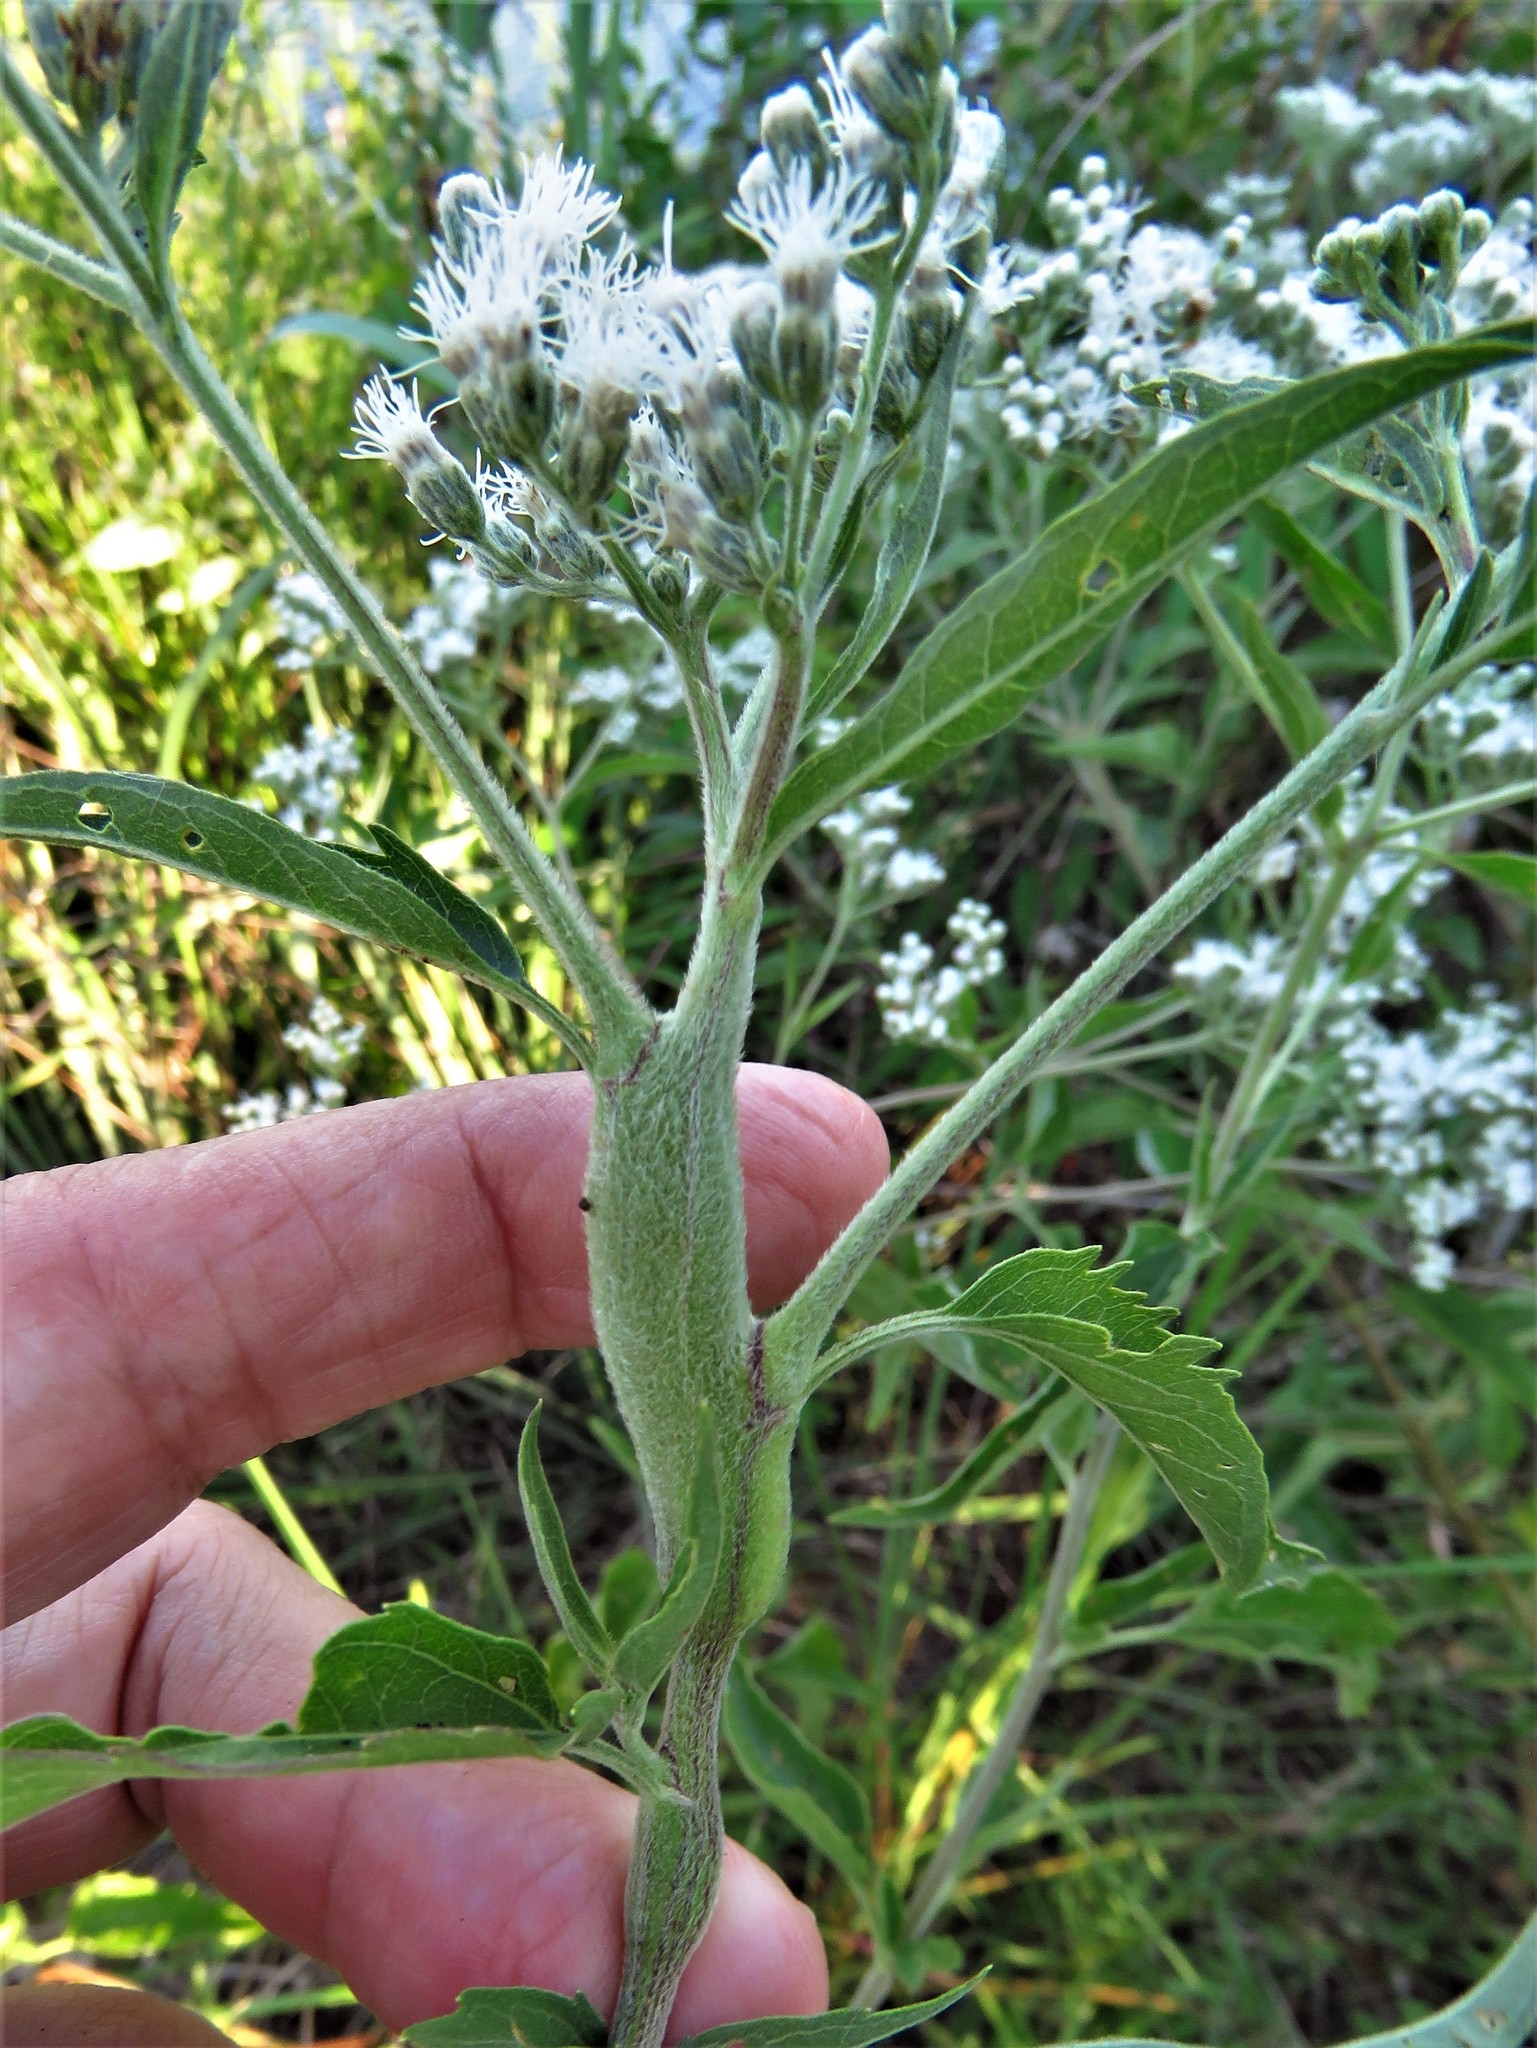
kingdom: Animalia
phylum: Arthropoda
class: Insecta
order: Diptera
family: Cecidomyiidae
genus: Neolasioptera
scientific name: Neolasioptera perfoliata
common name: Boneset stem midge
